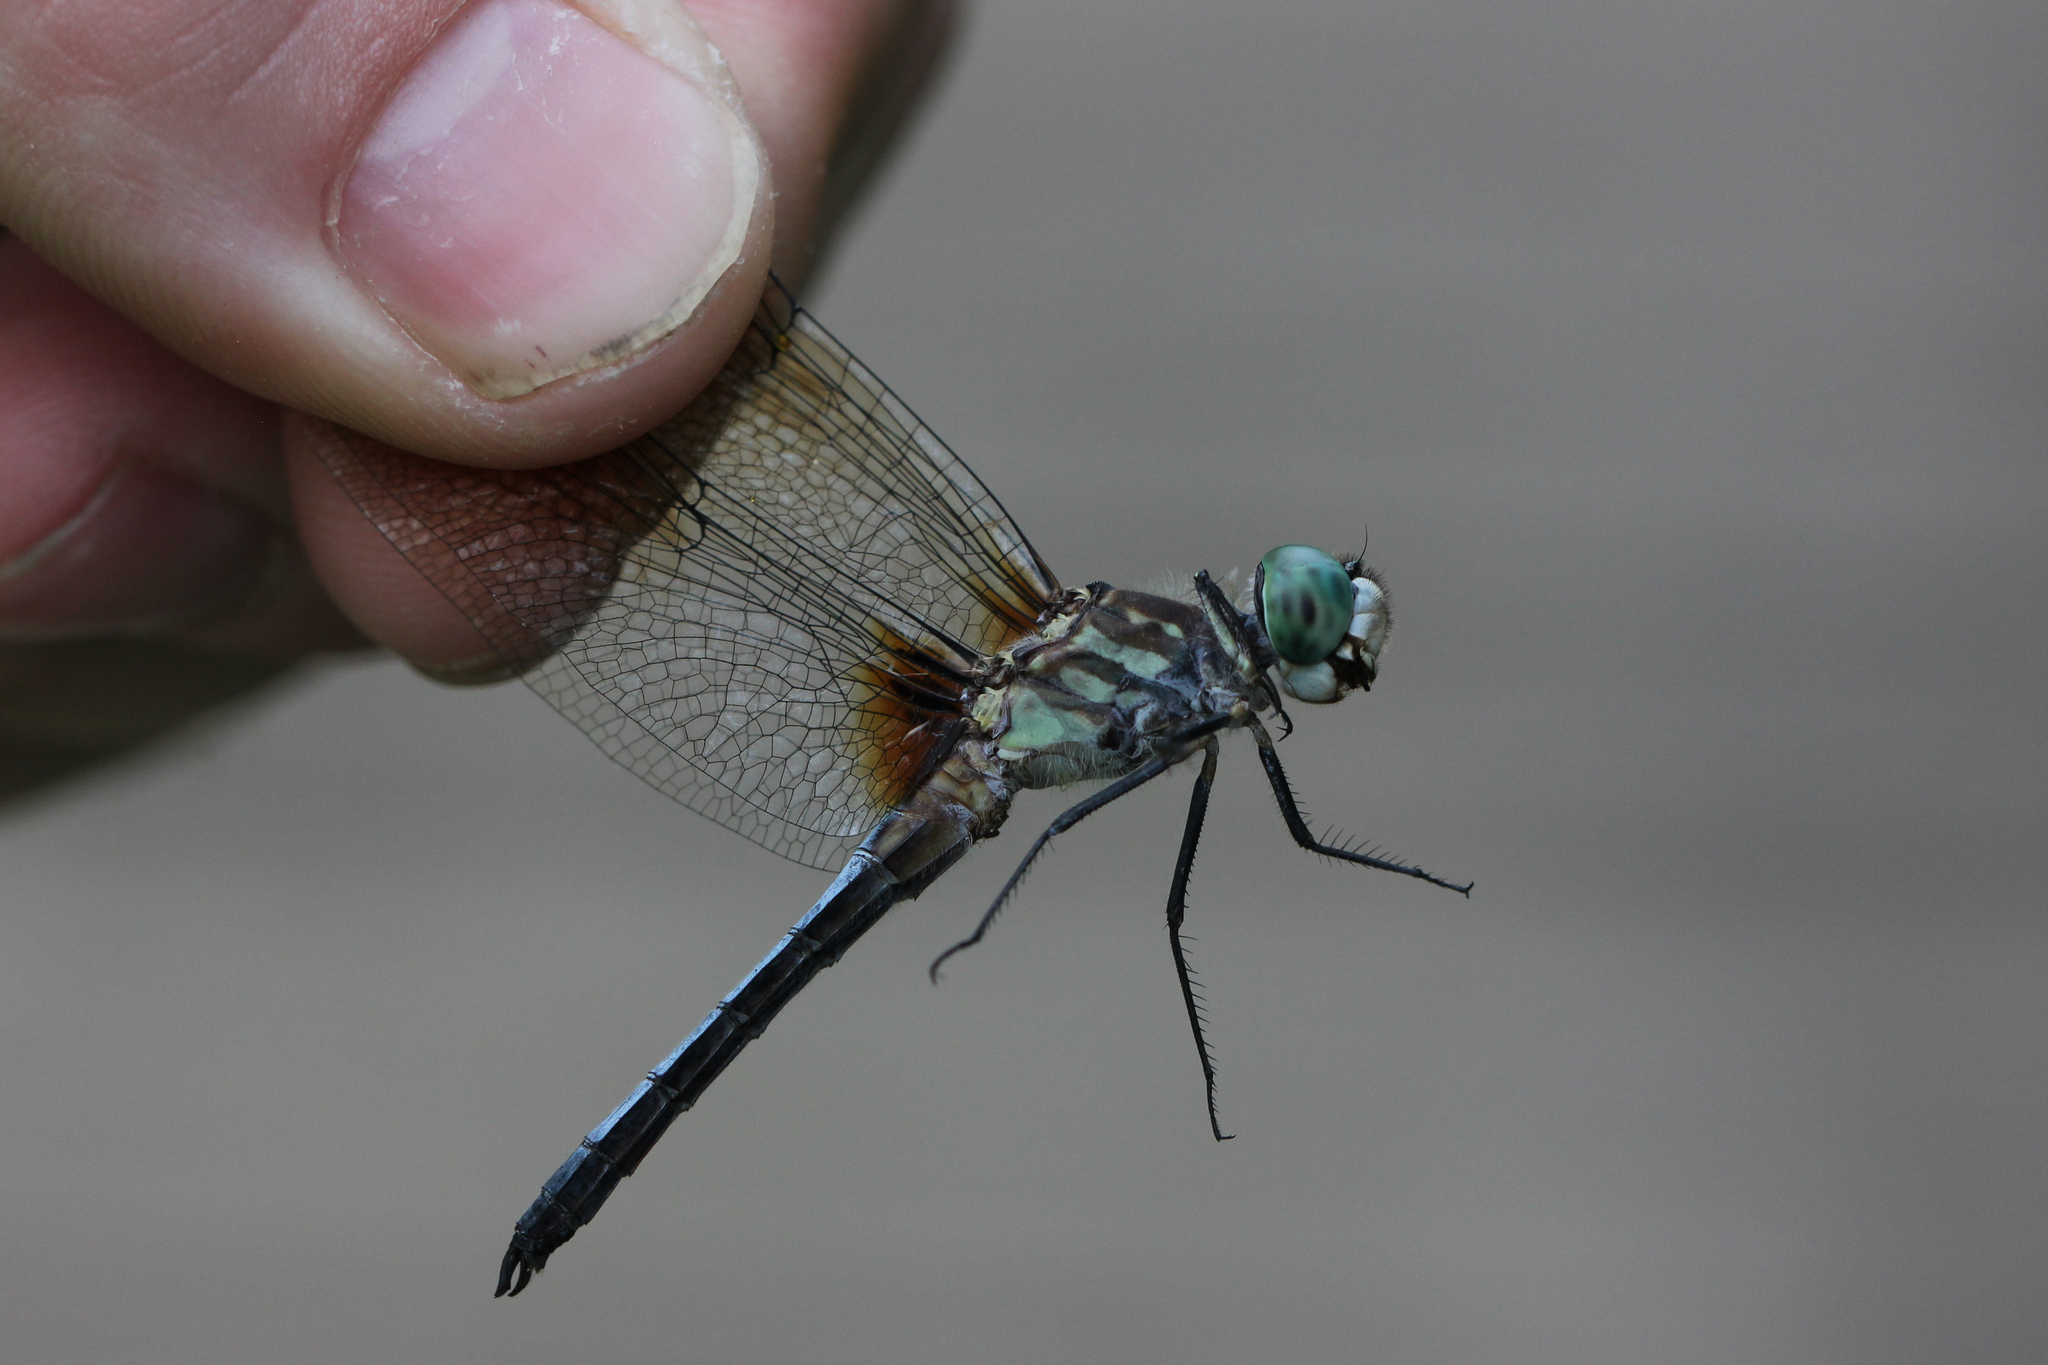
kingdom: Animalia
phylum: Arthropoda
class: Insecta
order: Odonata
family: Libellulidae
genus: Pachydiplax
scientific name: Pachydiplax longipennis
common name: Blue dasher
